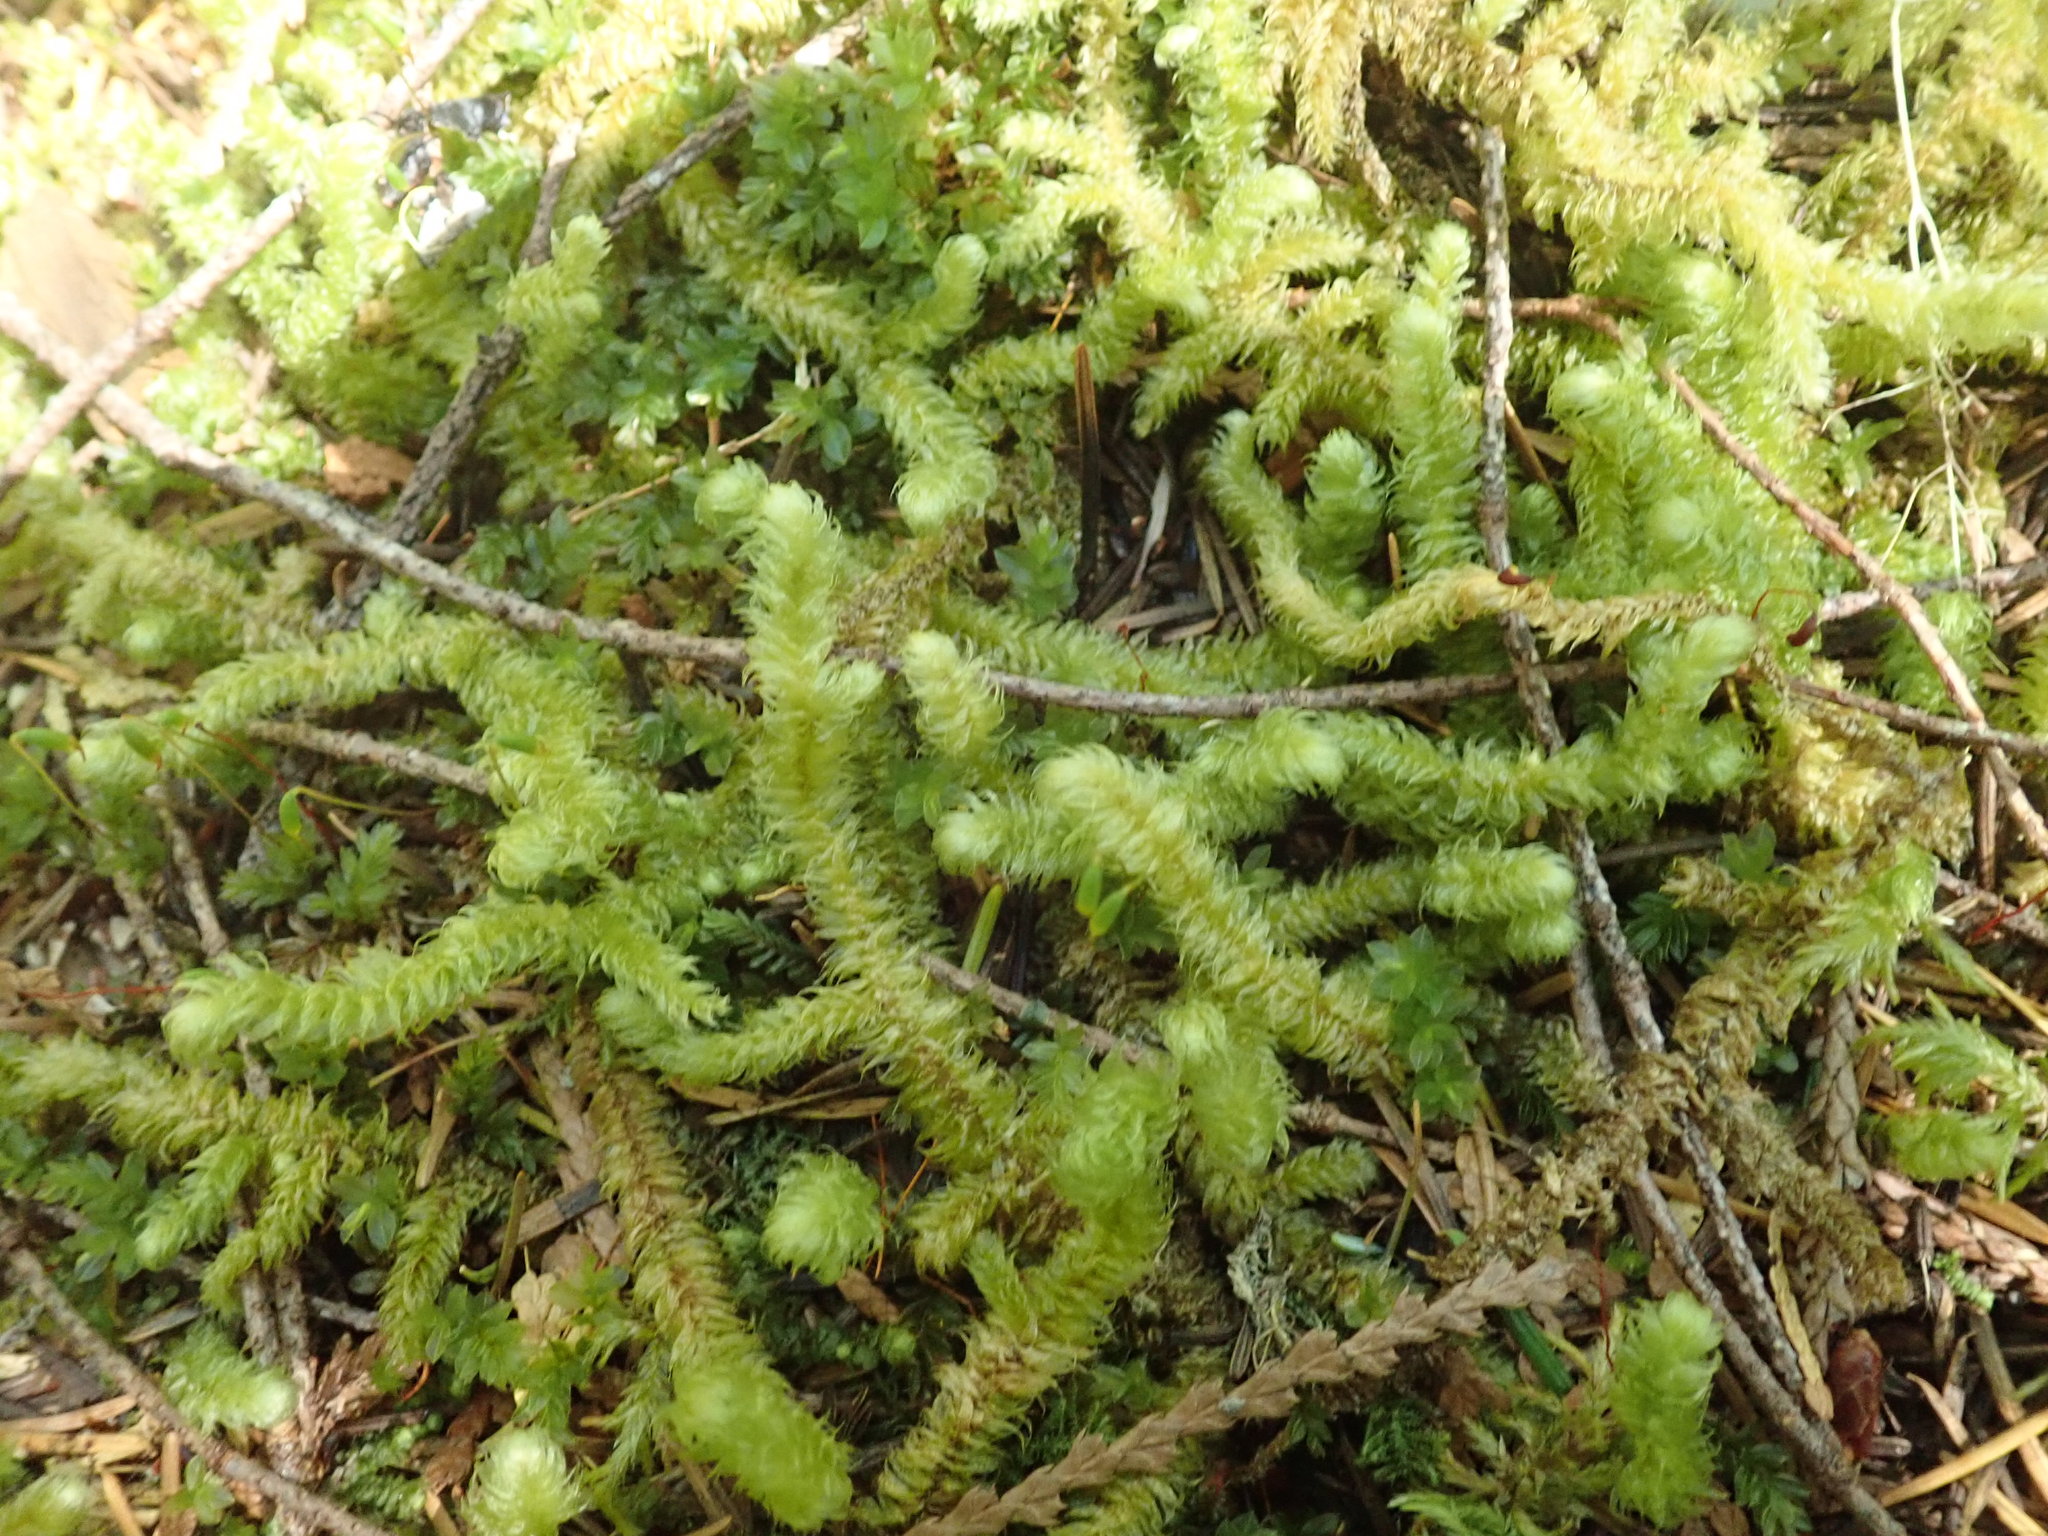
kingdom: Plantae
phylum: Bryophyta
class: Bryopsida
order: Hypnales
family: Hylocomiaceae
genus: Rhytidiopsis
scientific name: Rhytidiopsis robusta
